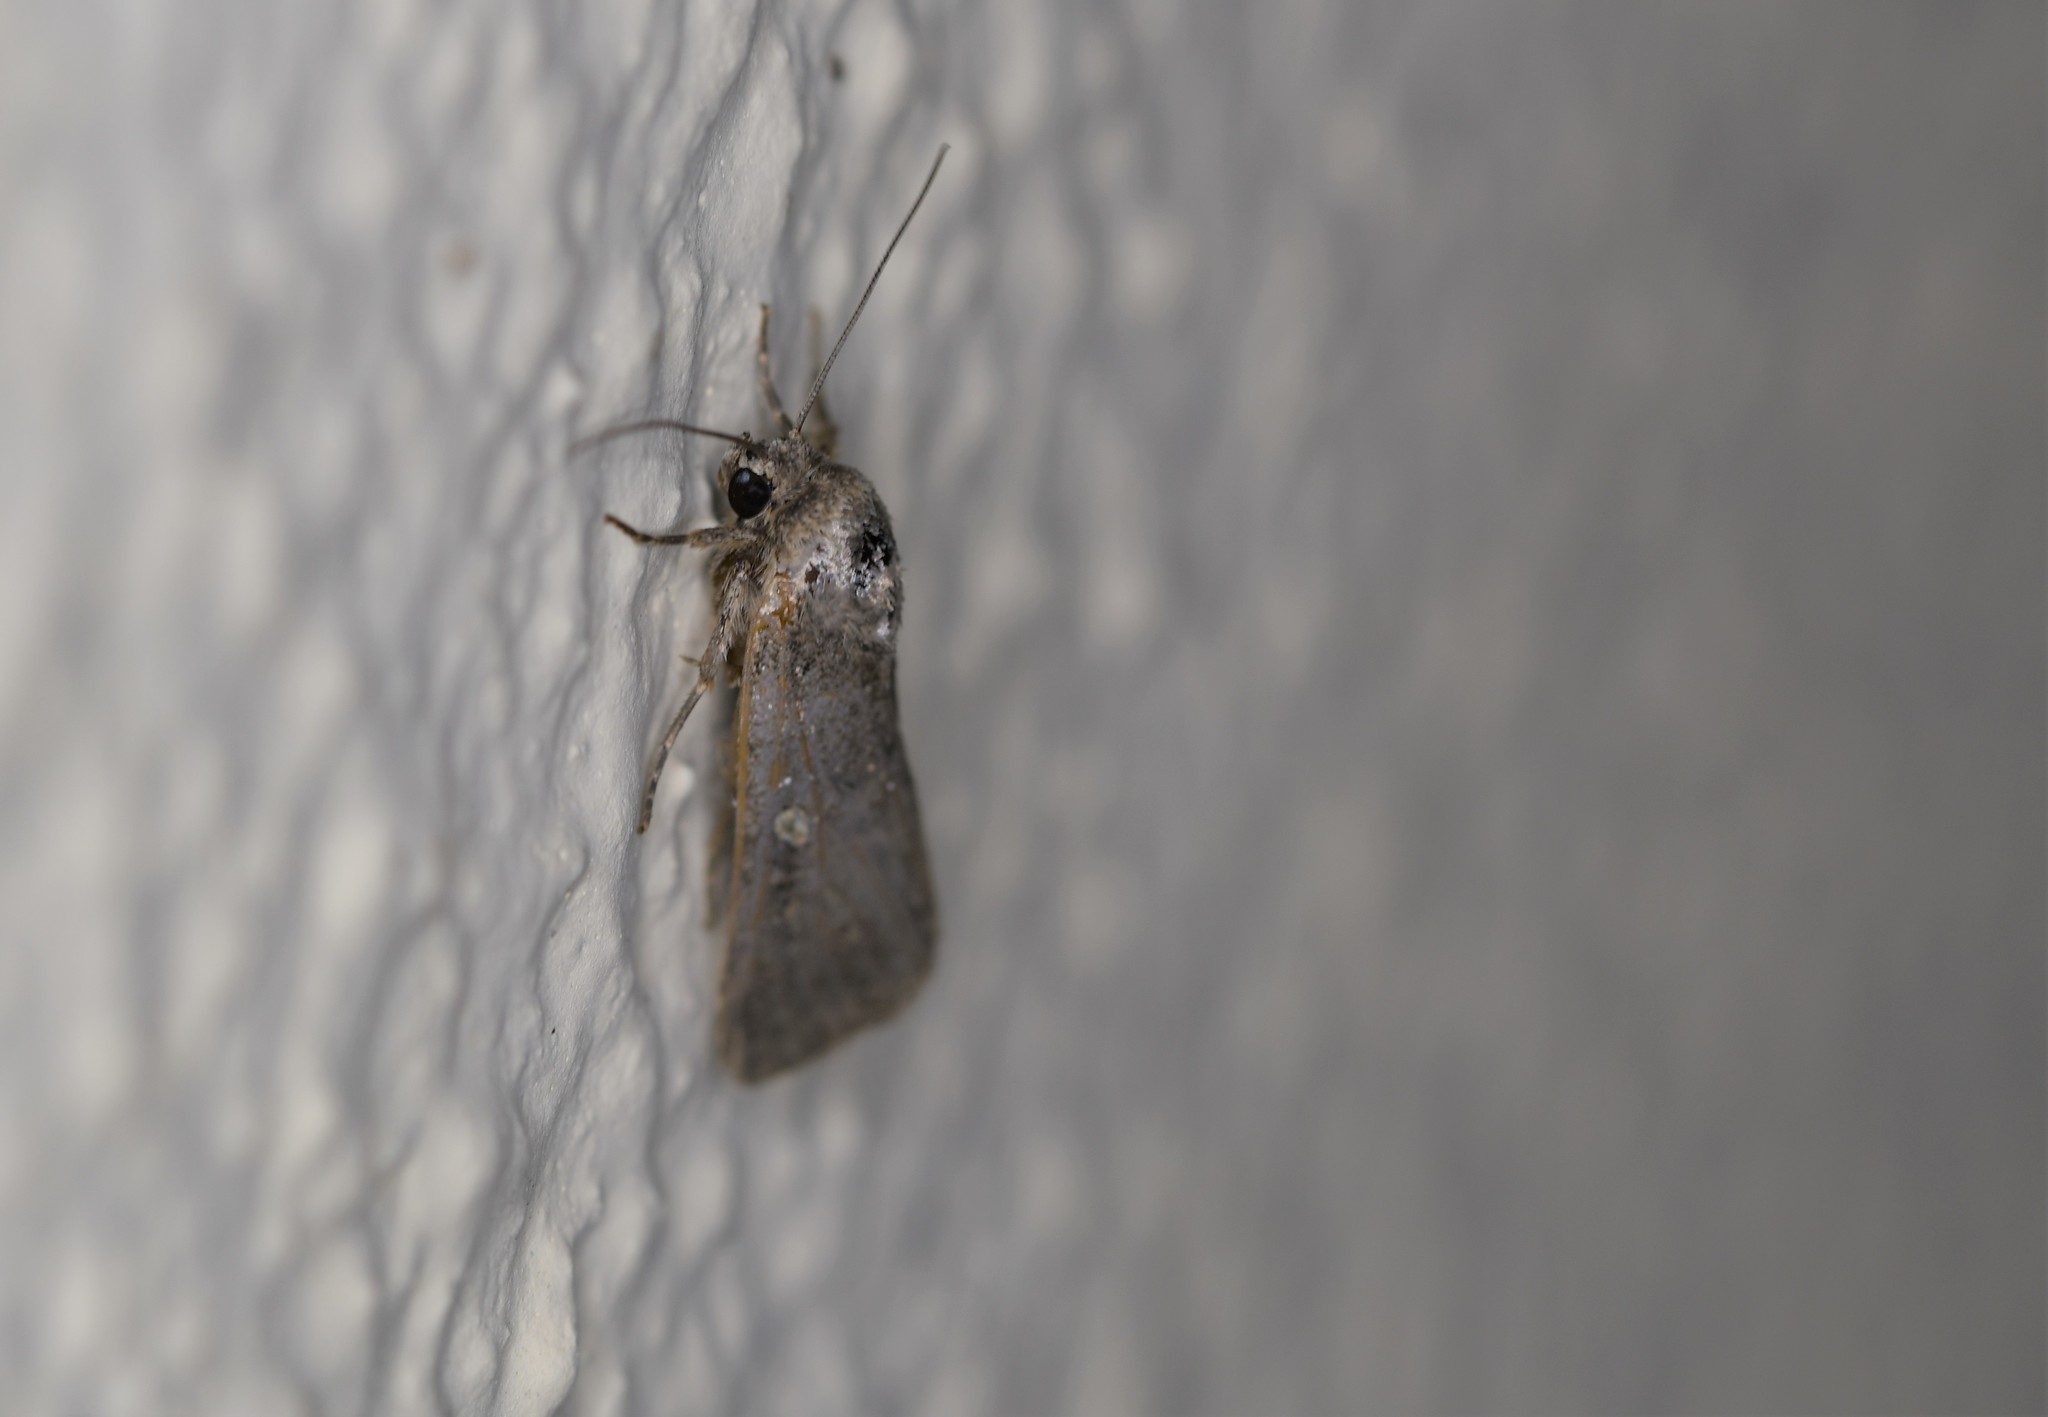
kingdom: Animalia
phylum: Arthropoda
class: Insecta
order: Lepidoptera
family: Noctuidae
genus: Athetis
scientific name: Athetis hospes
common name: Porter's rustic
